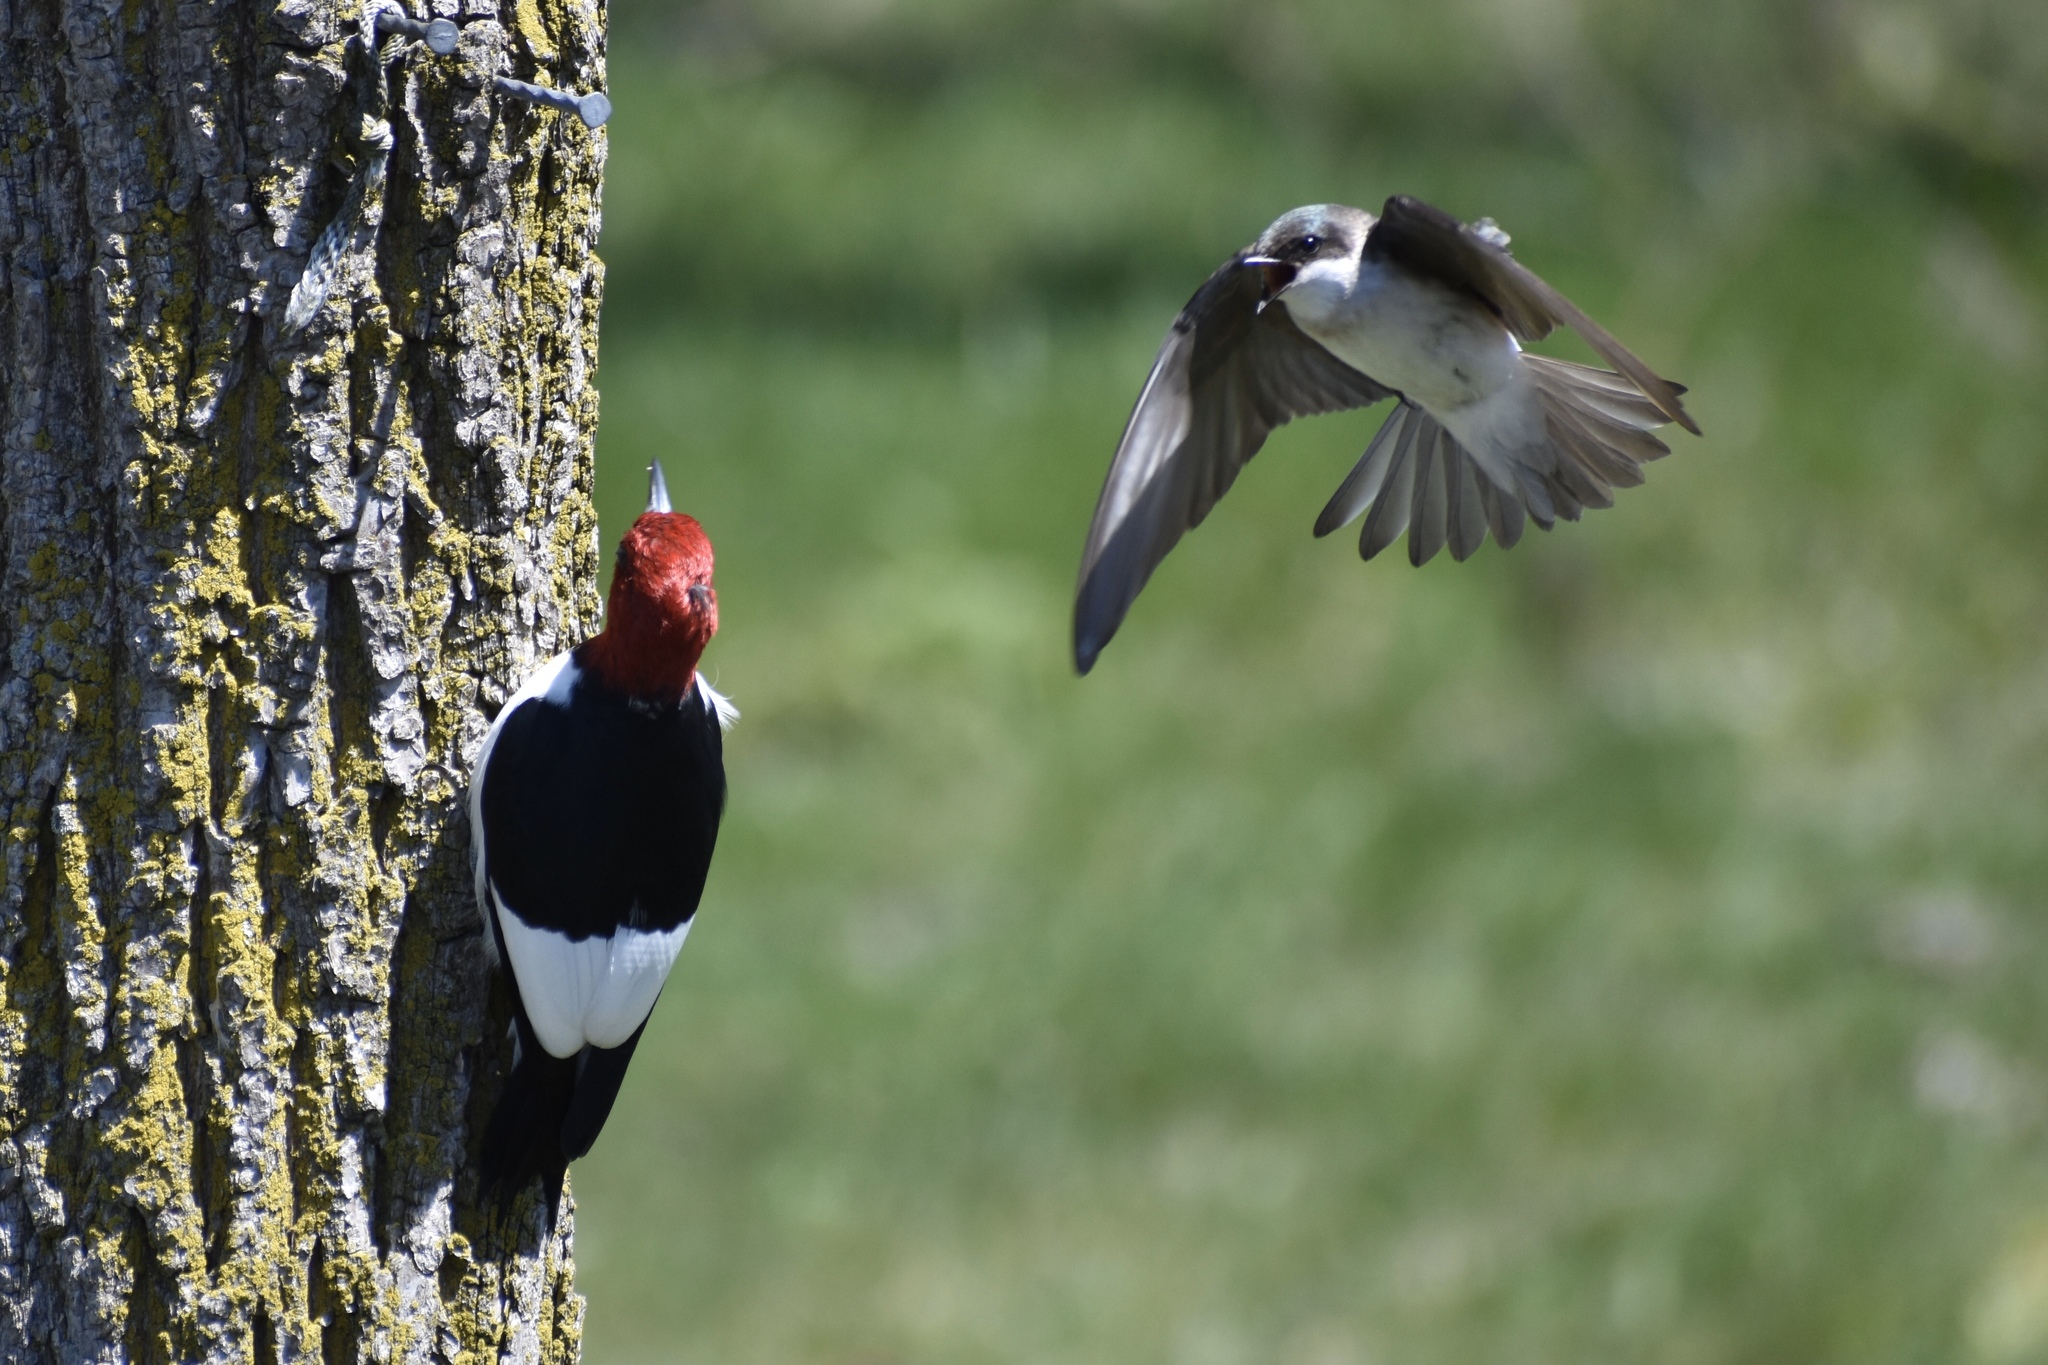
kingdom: Animalia
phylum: Chordata
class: Aves
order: Passeriformes
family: Hirundinidae
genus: Tachycineta
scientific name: Tachycineta bicolor
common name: Tree swallow
